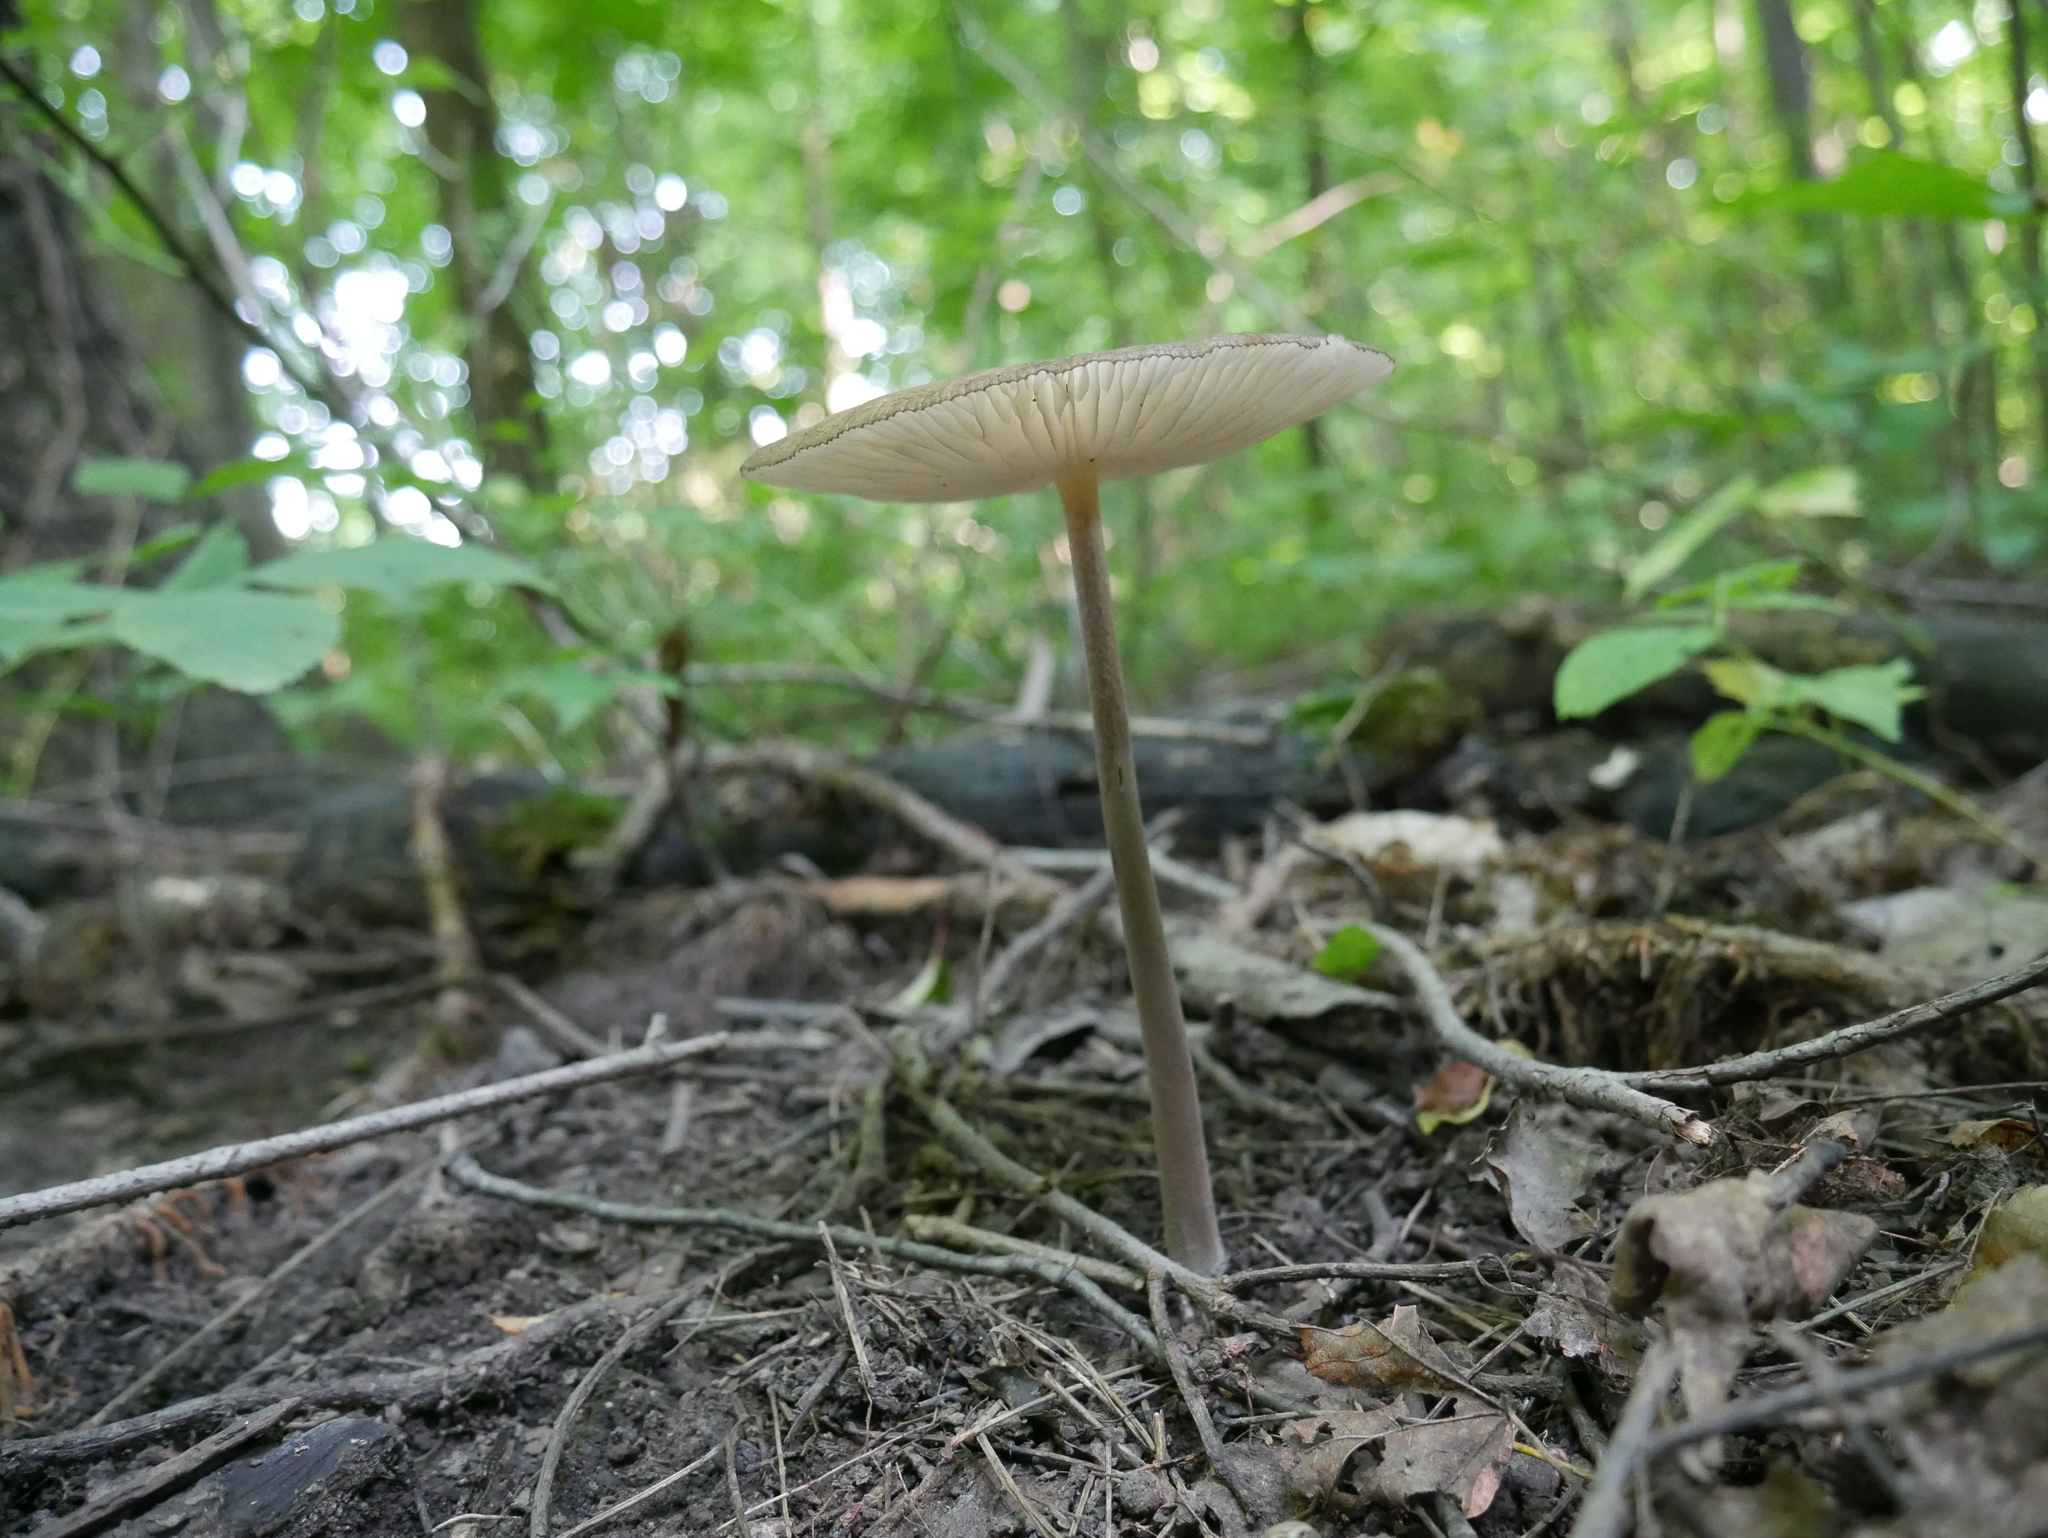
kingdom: Fungi
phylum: Basidiomycota
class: Agaricomycetes
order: Agaricales
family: Physalacriaceae
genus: Hymenopellis
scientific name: Hymenopellis furfuracea
